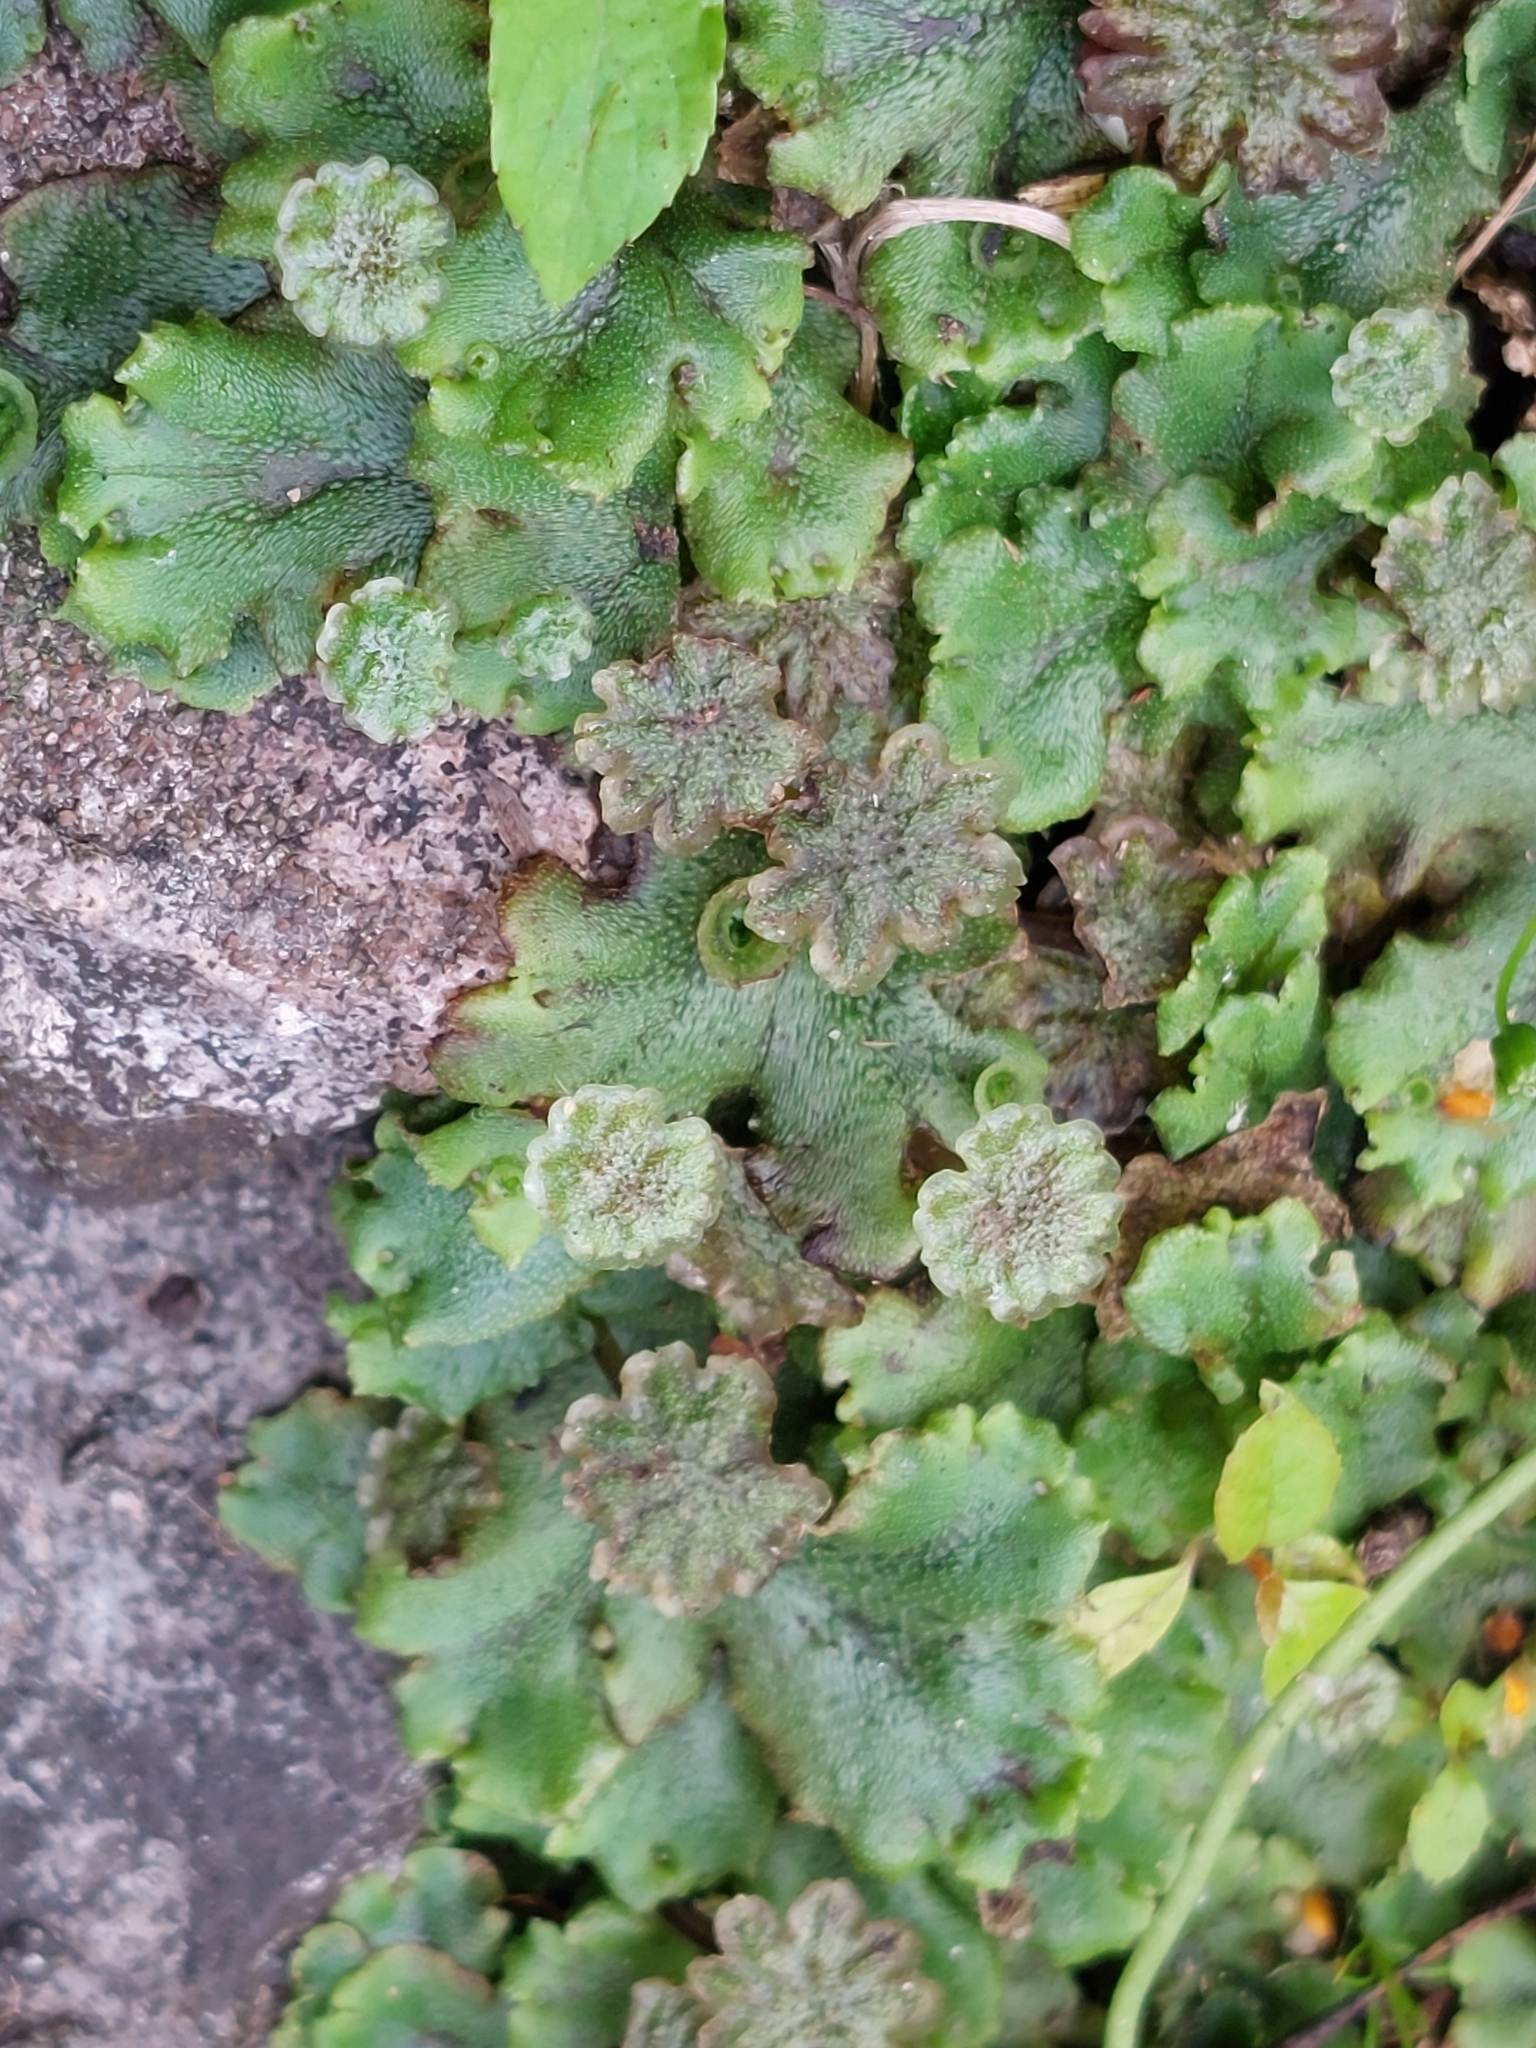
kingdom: Plantae
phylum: Marchantiophyta
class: Marchantiopsida
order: Marchantiales
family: Marchantiaceae
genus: Marchantia
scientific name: Marchantia polymorpha
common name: Common liverwort
